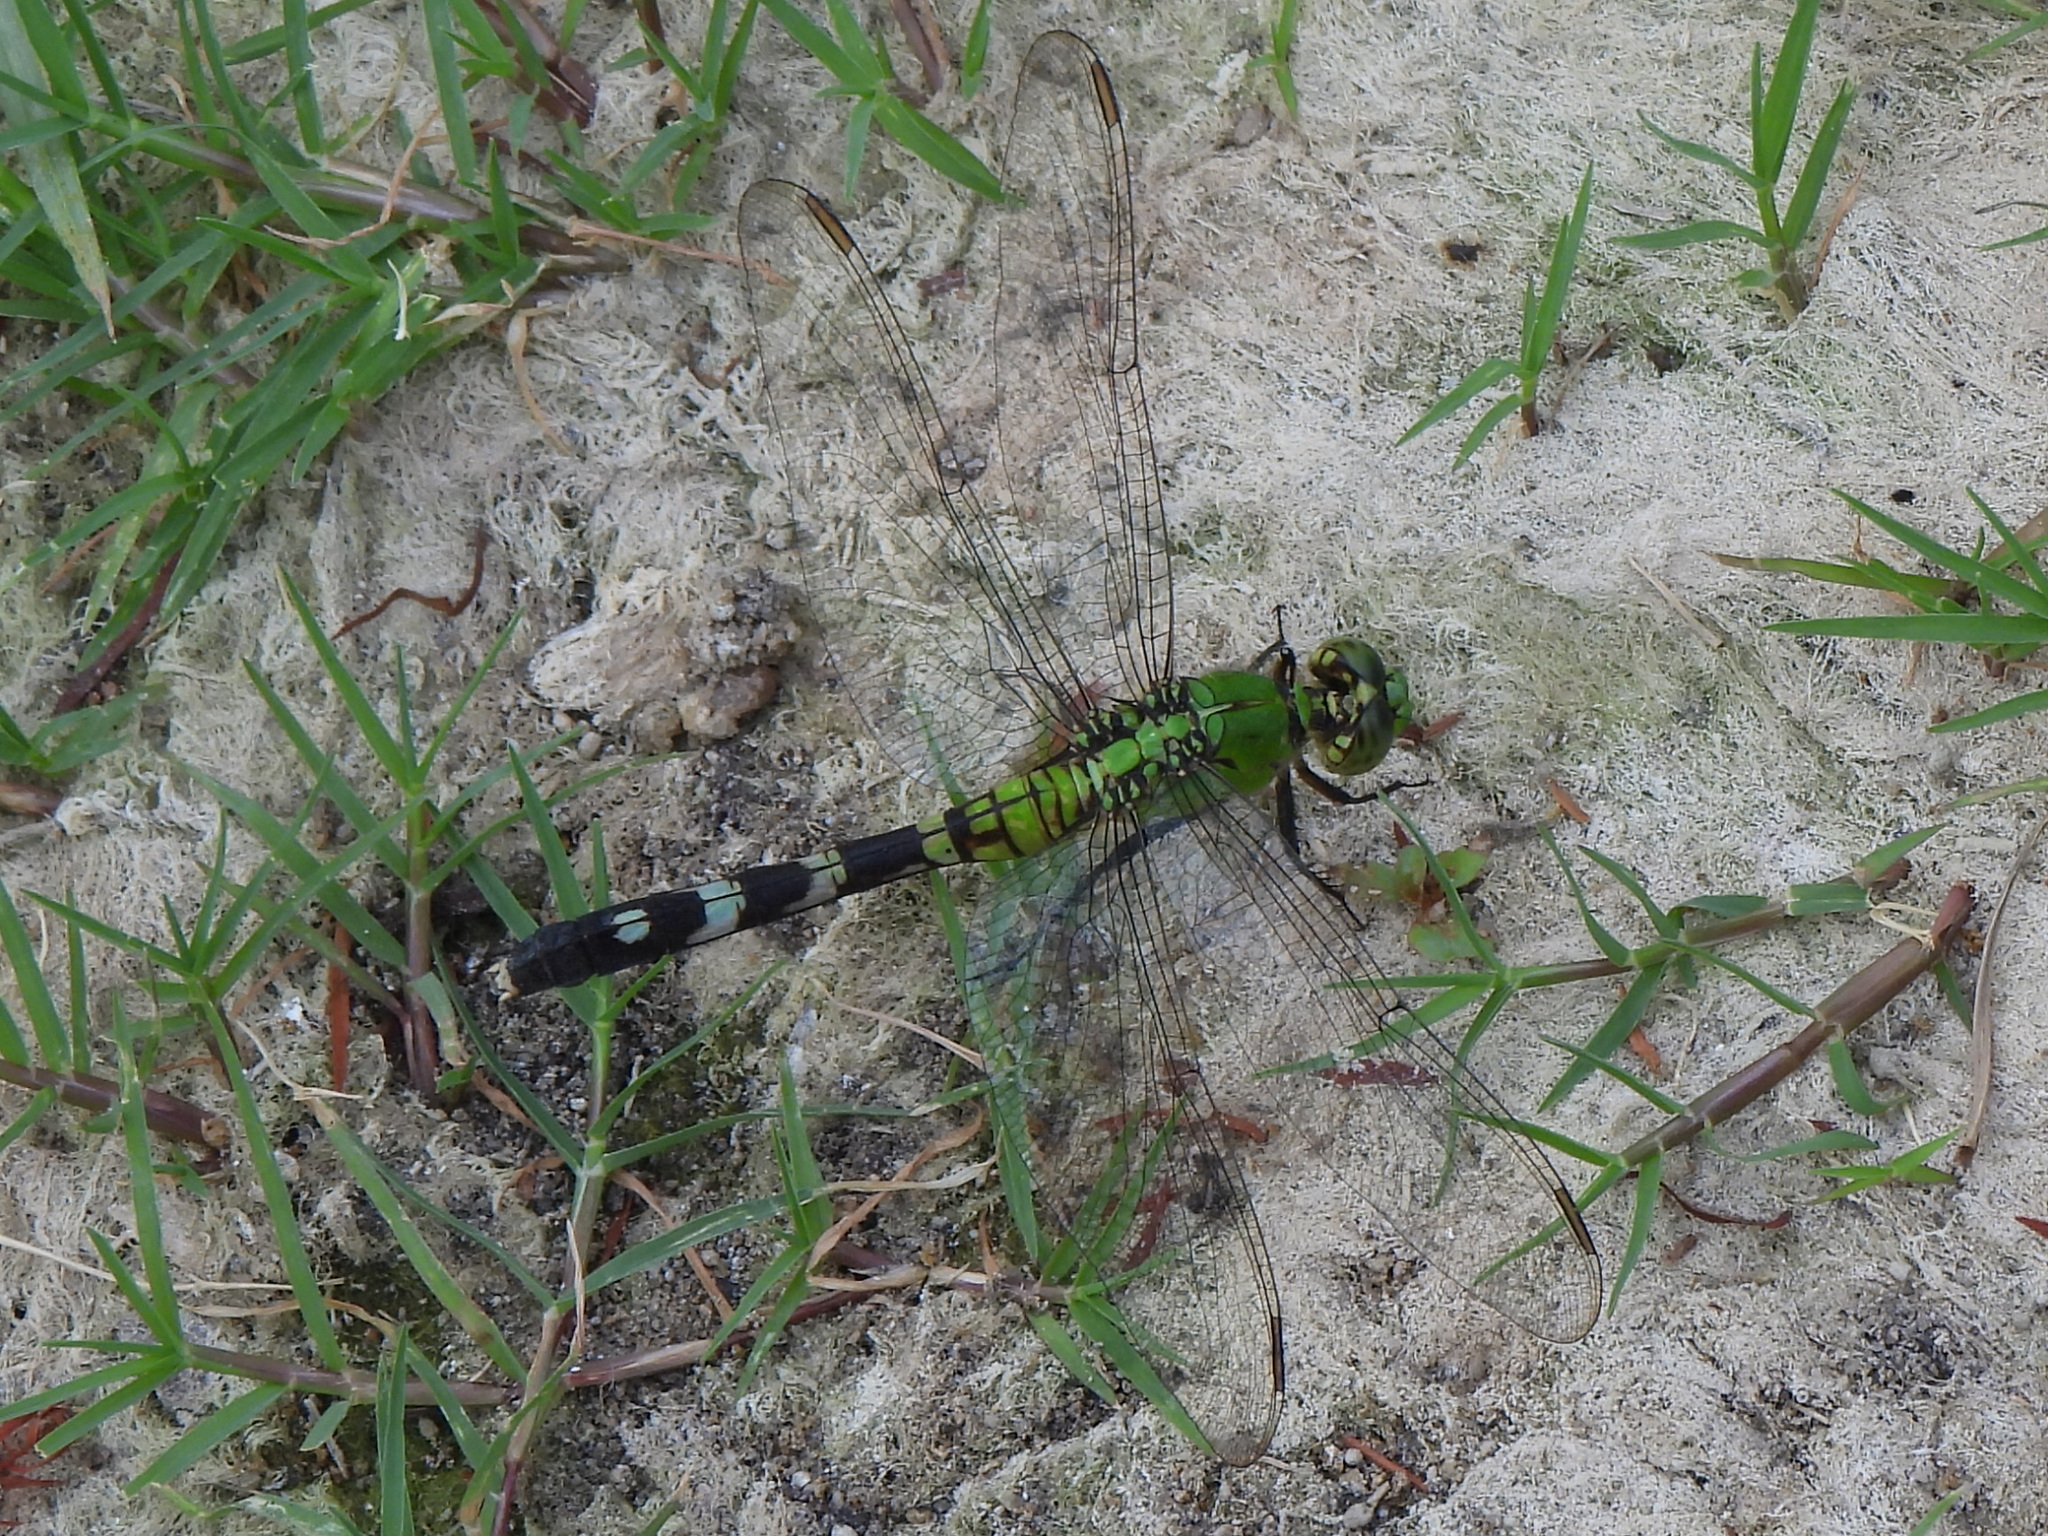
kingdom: Animalia
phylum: Arthropoda
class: Insecta
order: Odonata
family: Libellulidae
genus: Erythemis
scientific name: Erythemis simplicicollis
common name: Eastern pondhawk
